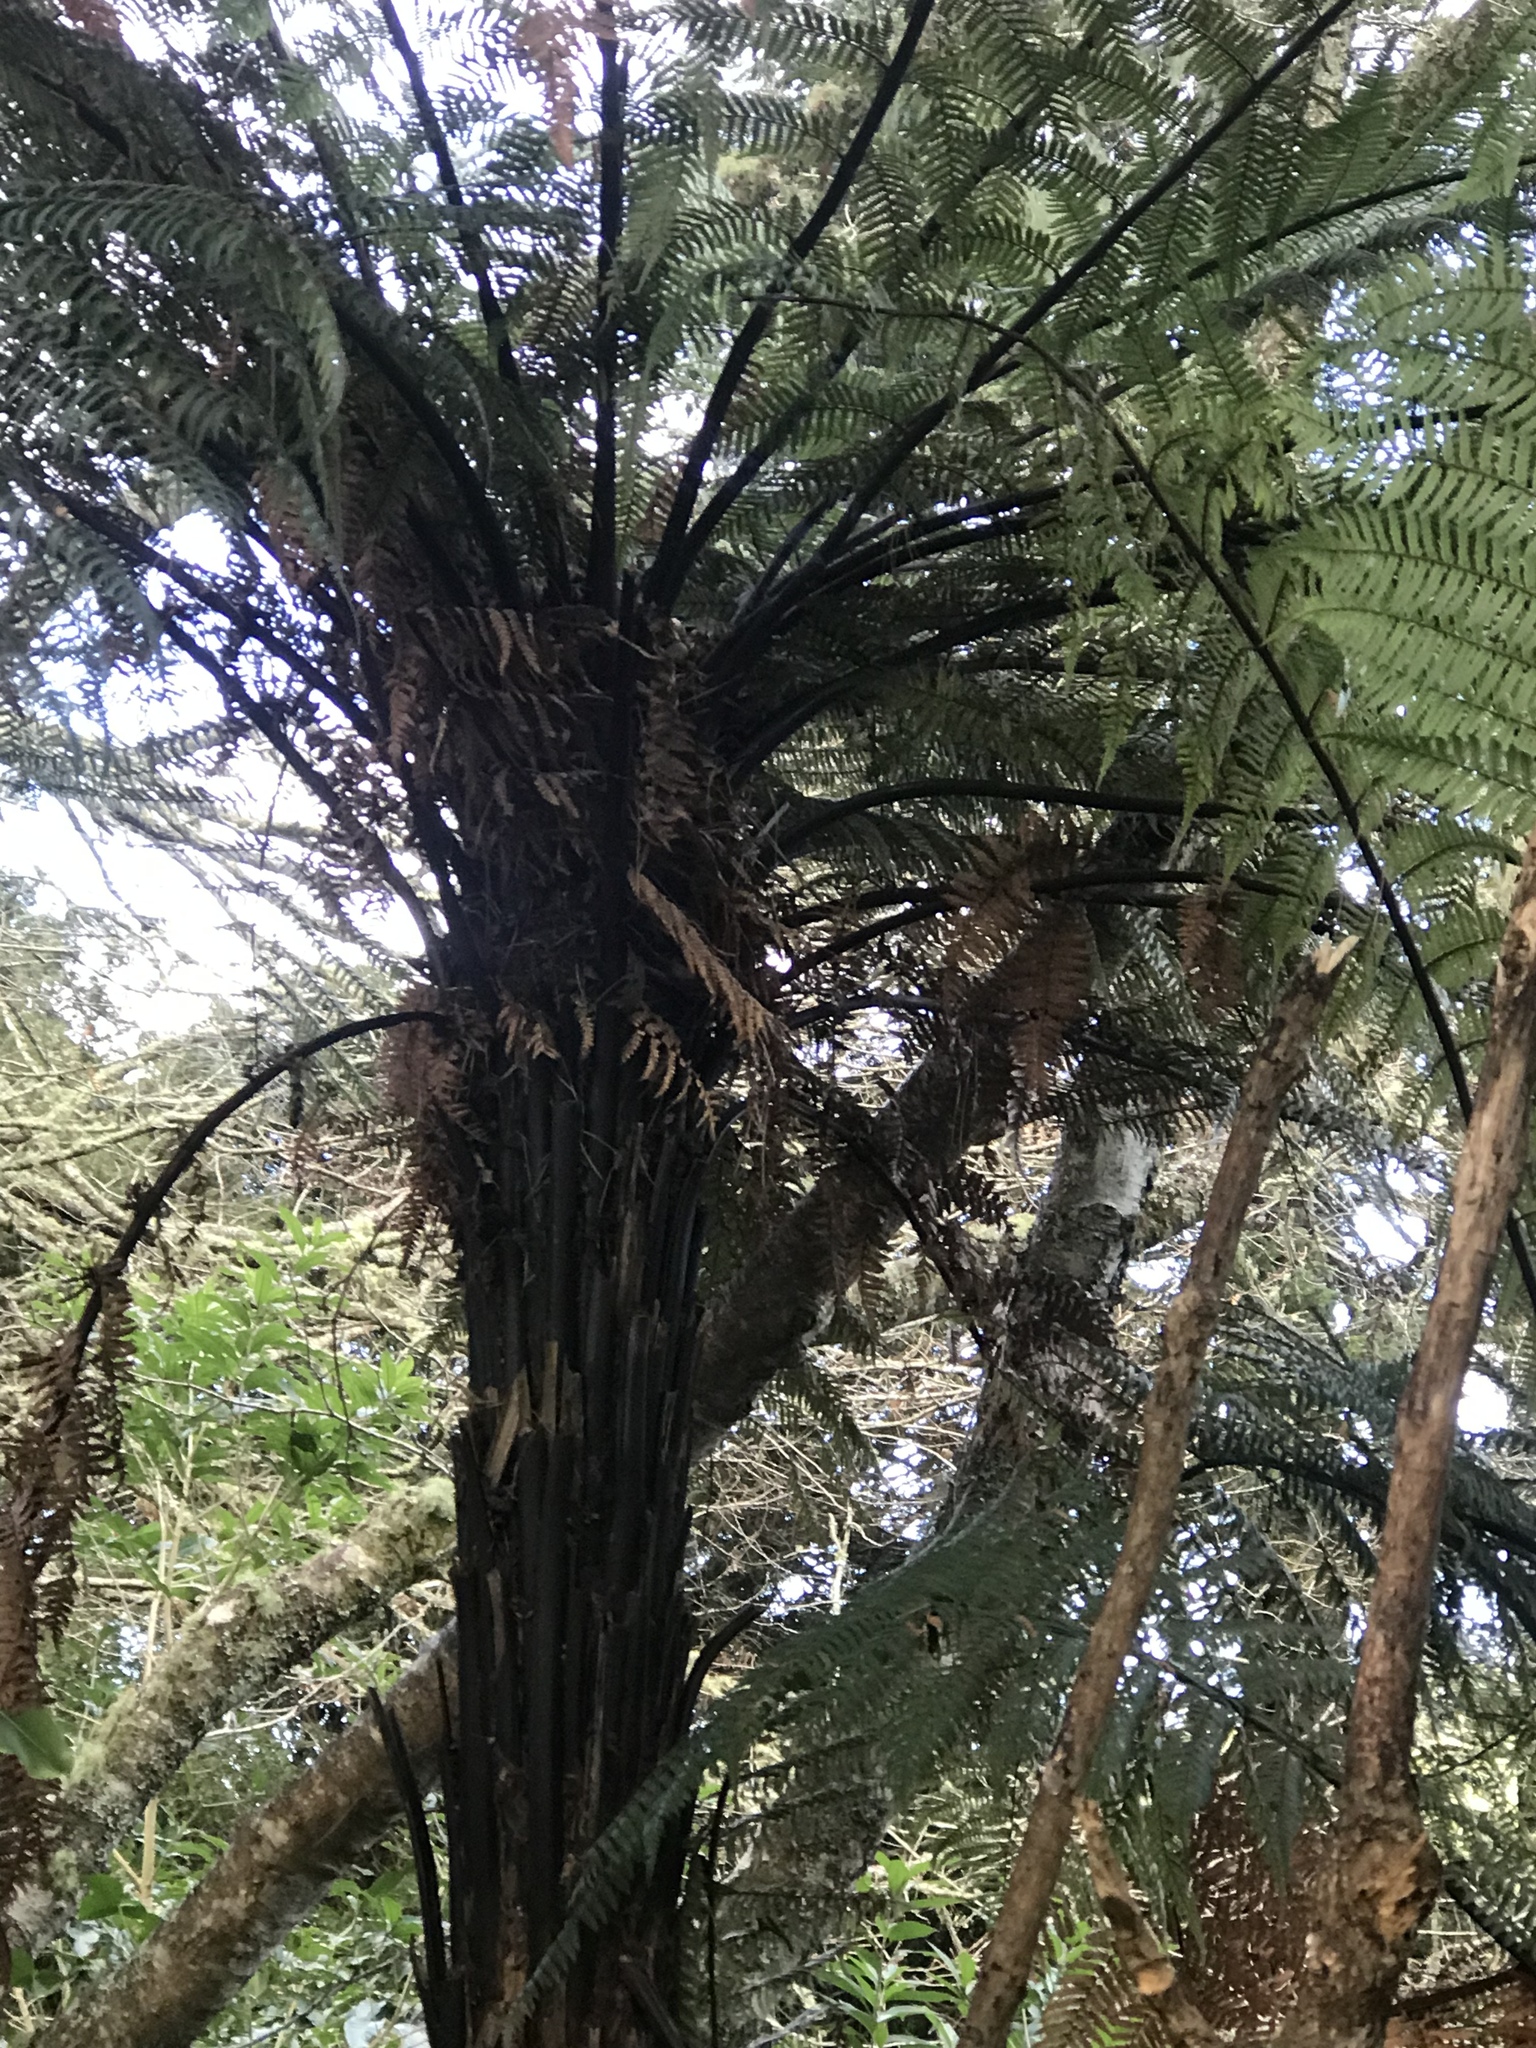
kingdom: Plantae
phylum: Tracheophyta
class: Polypodiopsida
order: Cyatheales
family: Dicksoniaceae
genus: Dicksonia
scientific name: Dicksonia squarrosa
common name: Hard treefern
